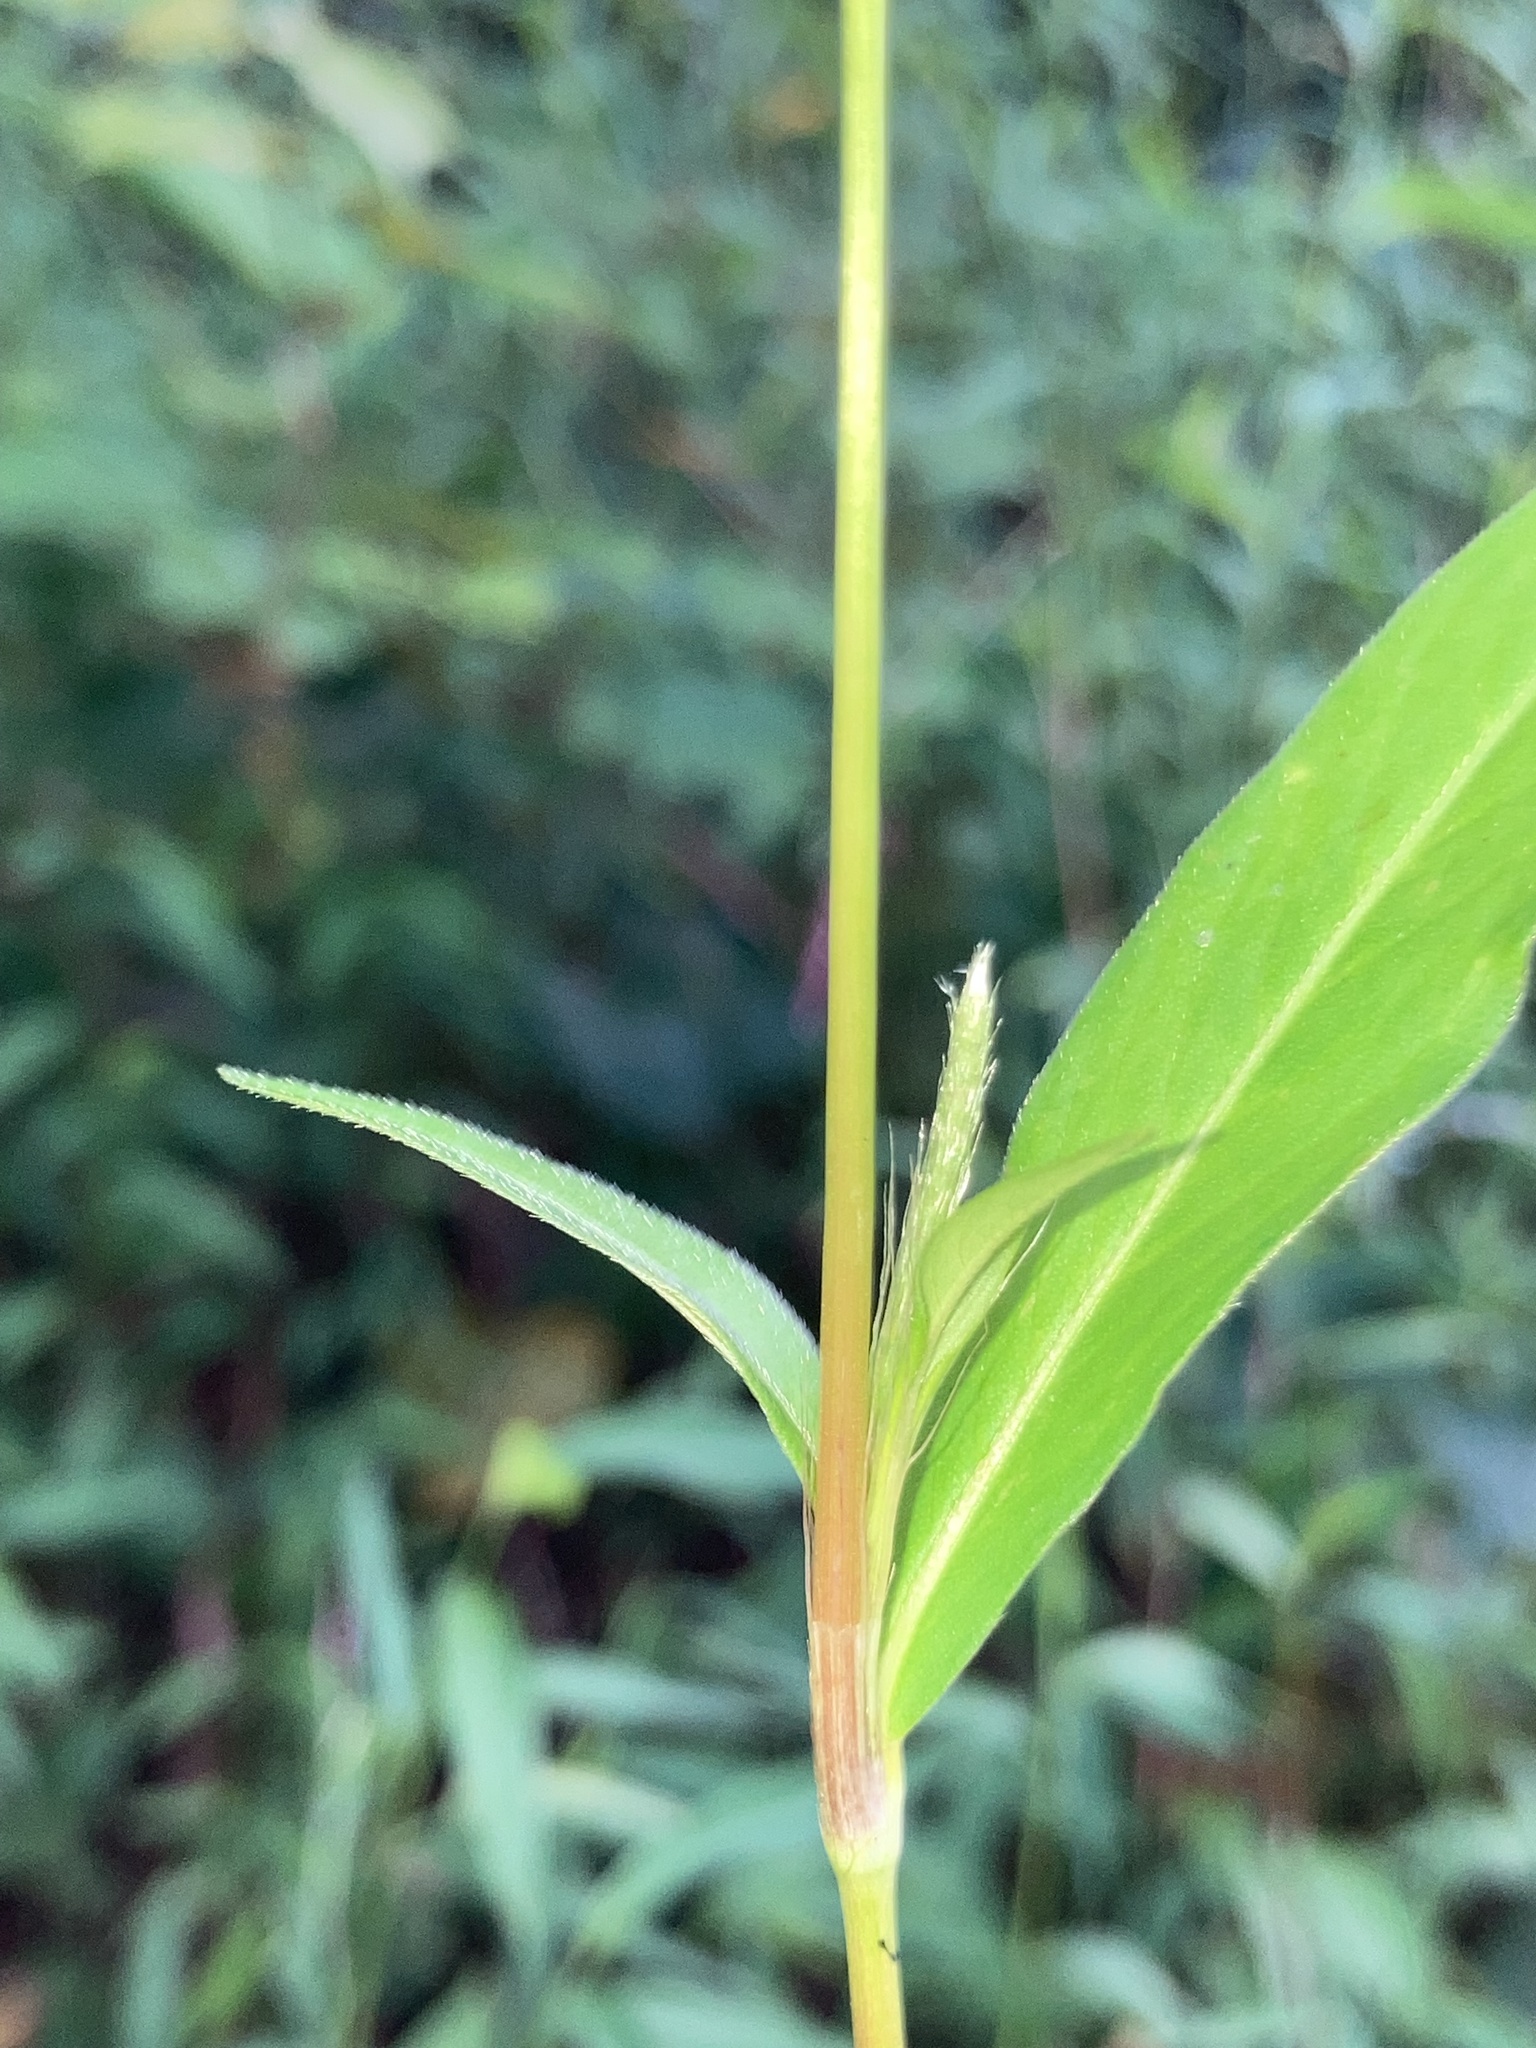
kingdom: Plantae
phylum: Tracheophyta
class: Magnoliopsida
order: Caryophyllales
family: Polygonaceae
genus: Persicaria
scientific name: Persicaria longiseta
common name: Bristly lady's-thumb
